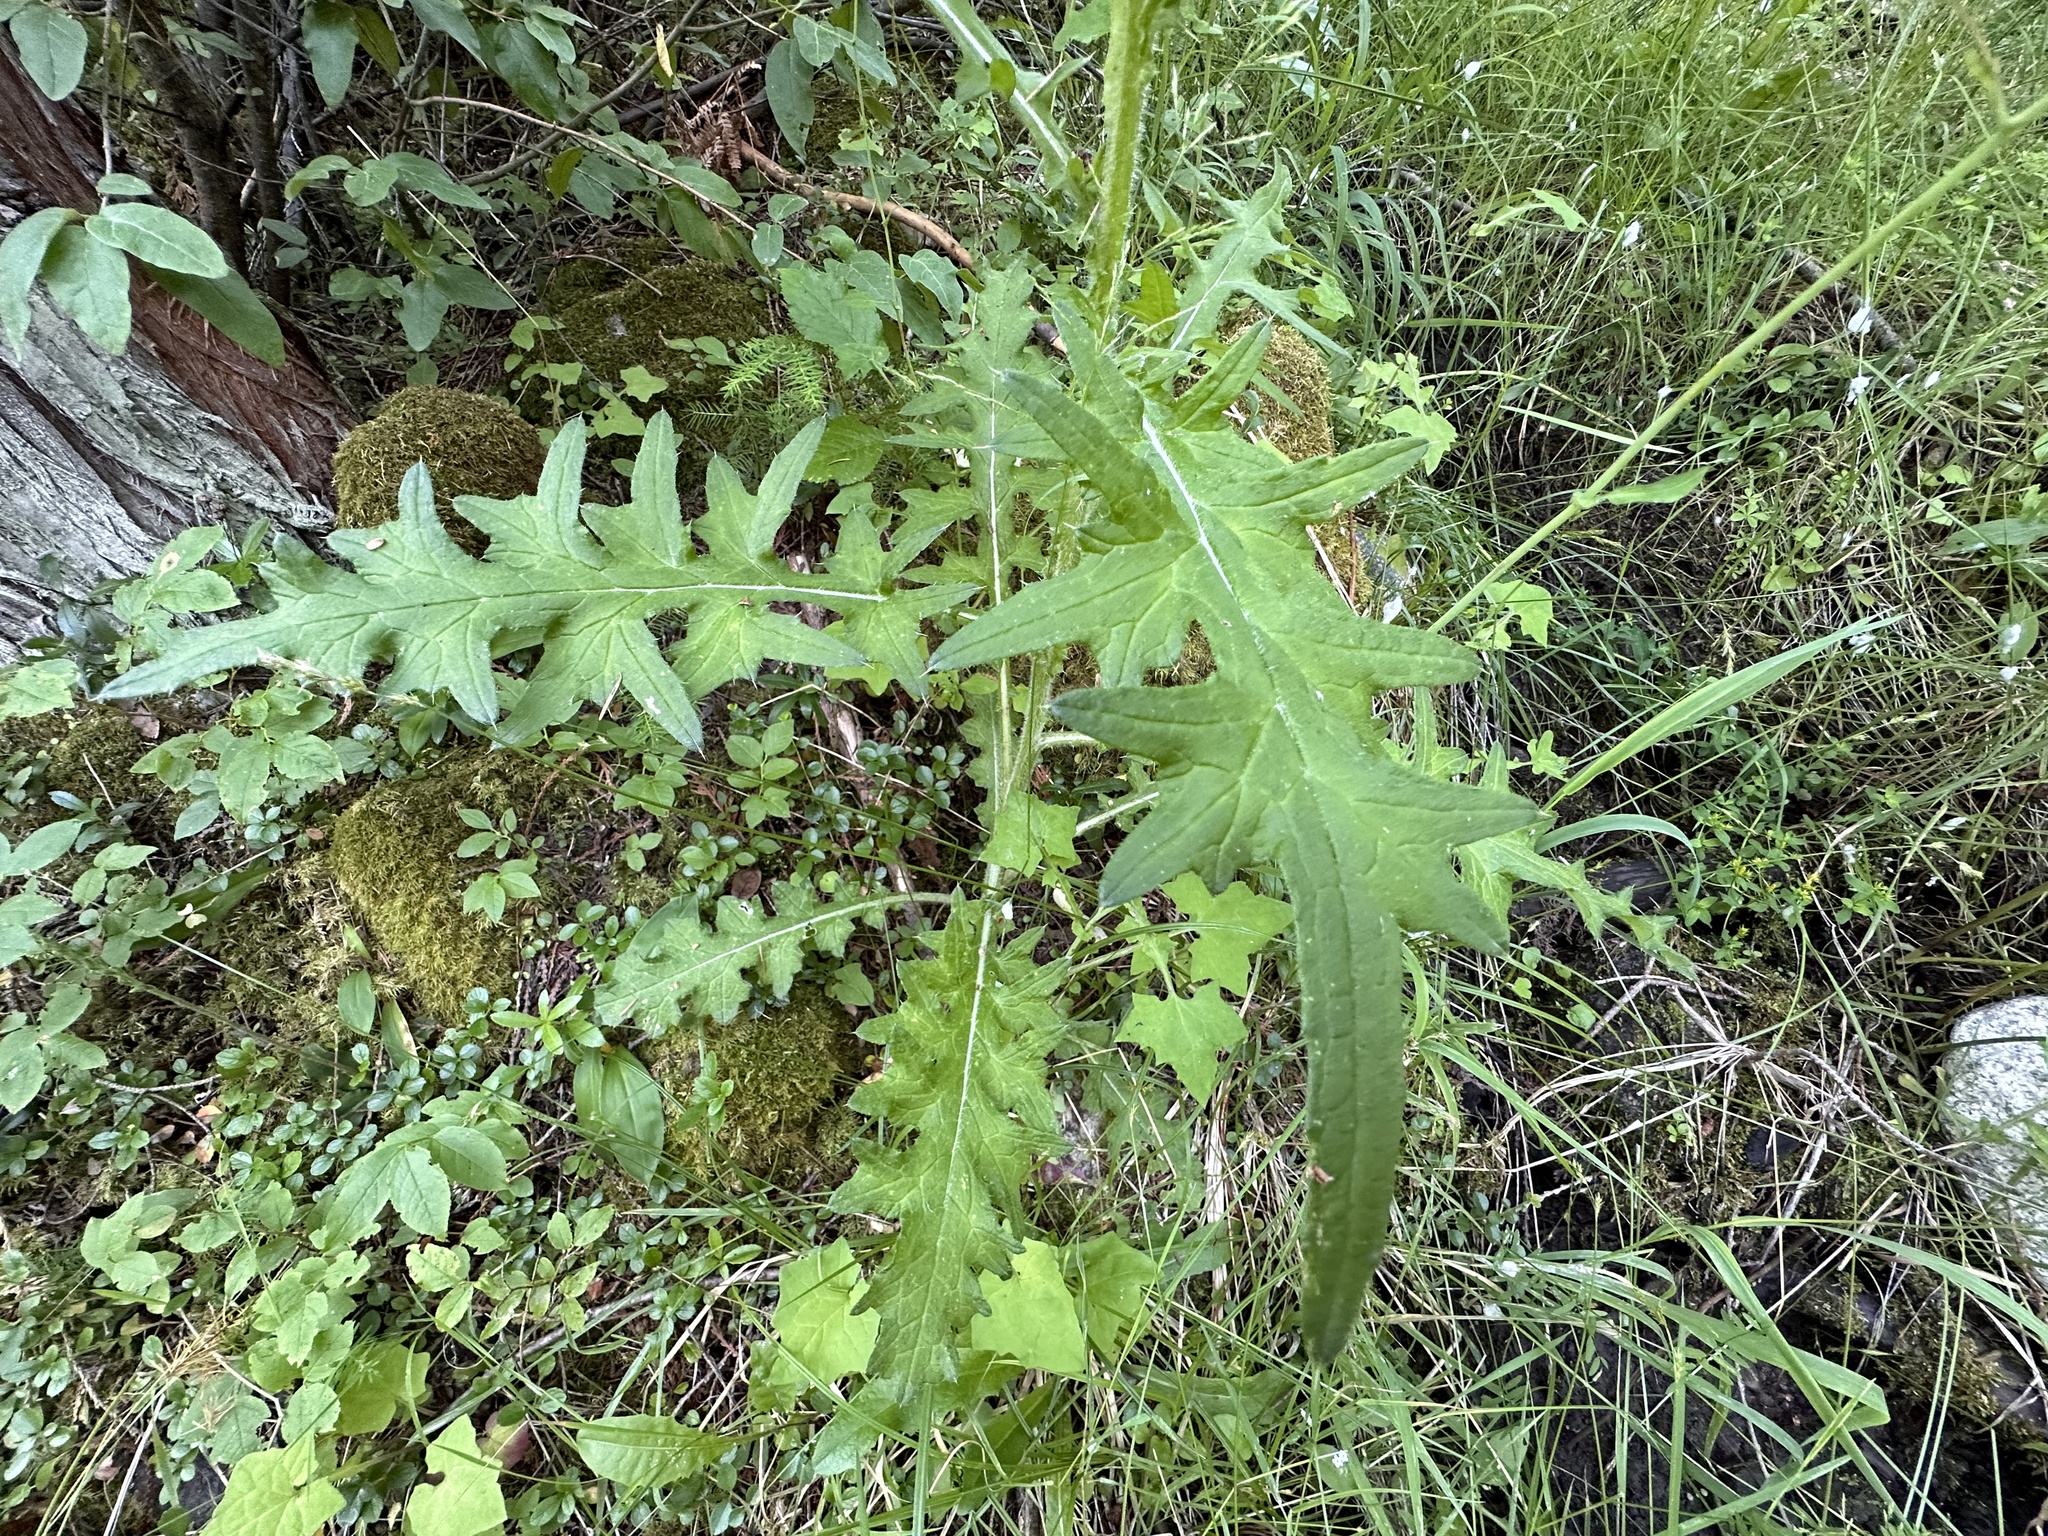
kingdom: Plantae
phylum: Tracheophyta
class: Magnoliopsida
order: Asterales
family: Asteraceae
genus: Cirsium
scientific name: Cirsium vulgare
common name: Bull thistle
